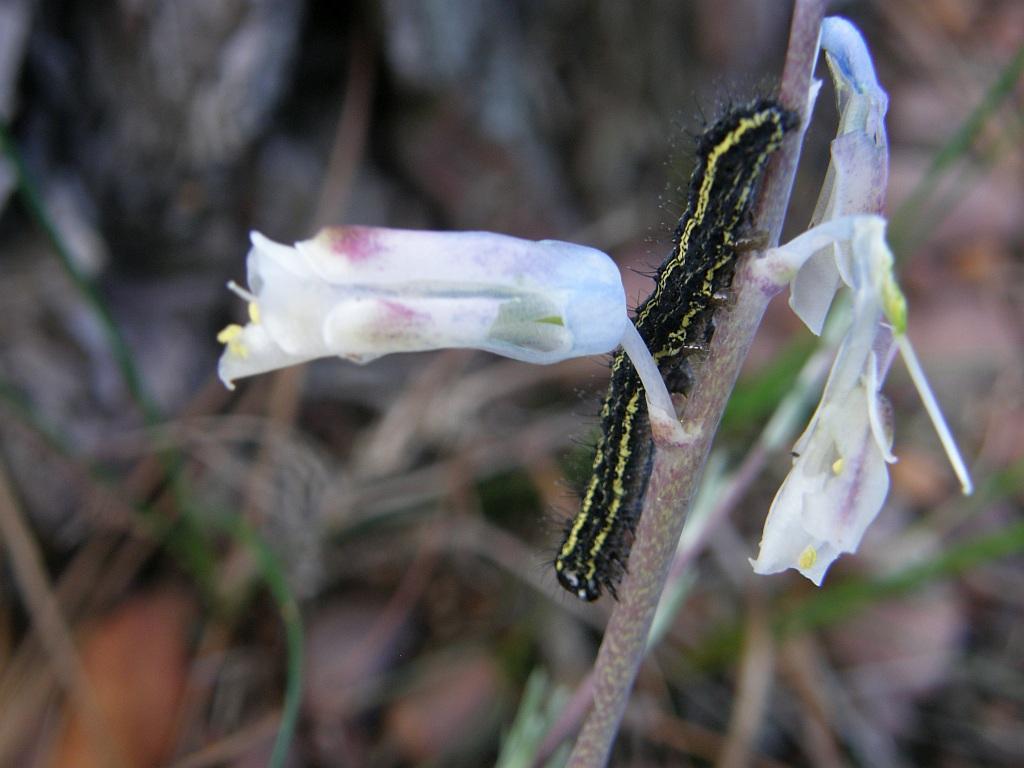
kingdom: Plantae
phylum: Tracheophyta
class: Liliopsida
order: Asparagales
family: Asparagaceae
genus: Lachenalia
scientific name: Lachenalia unifolia
